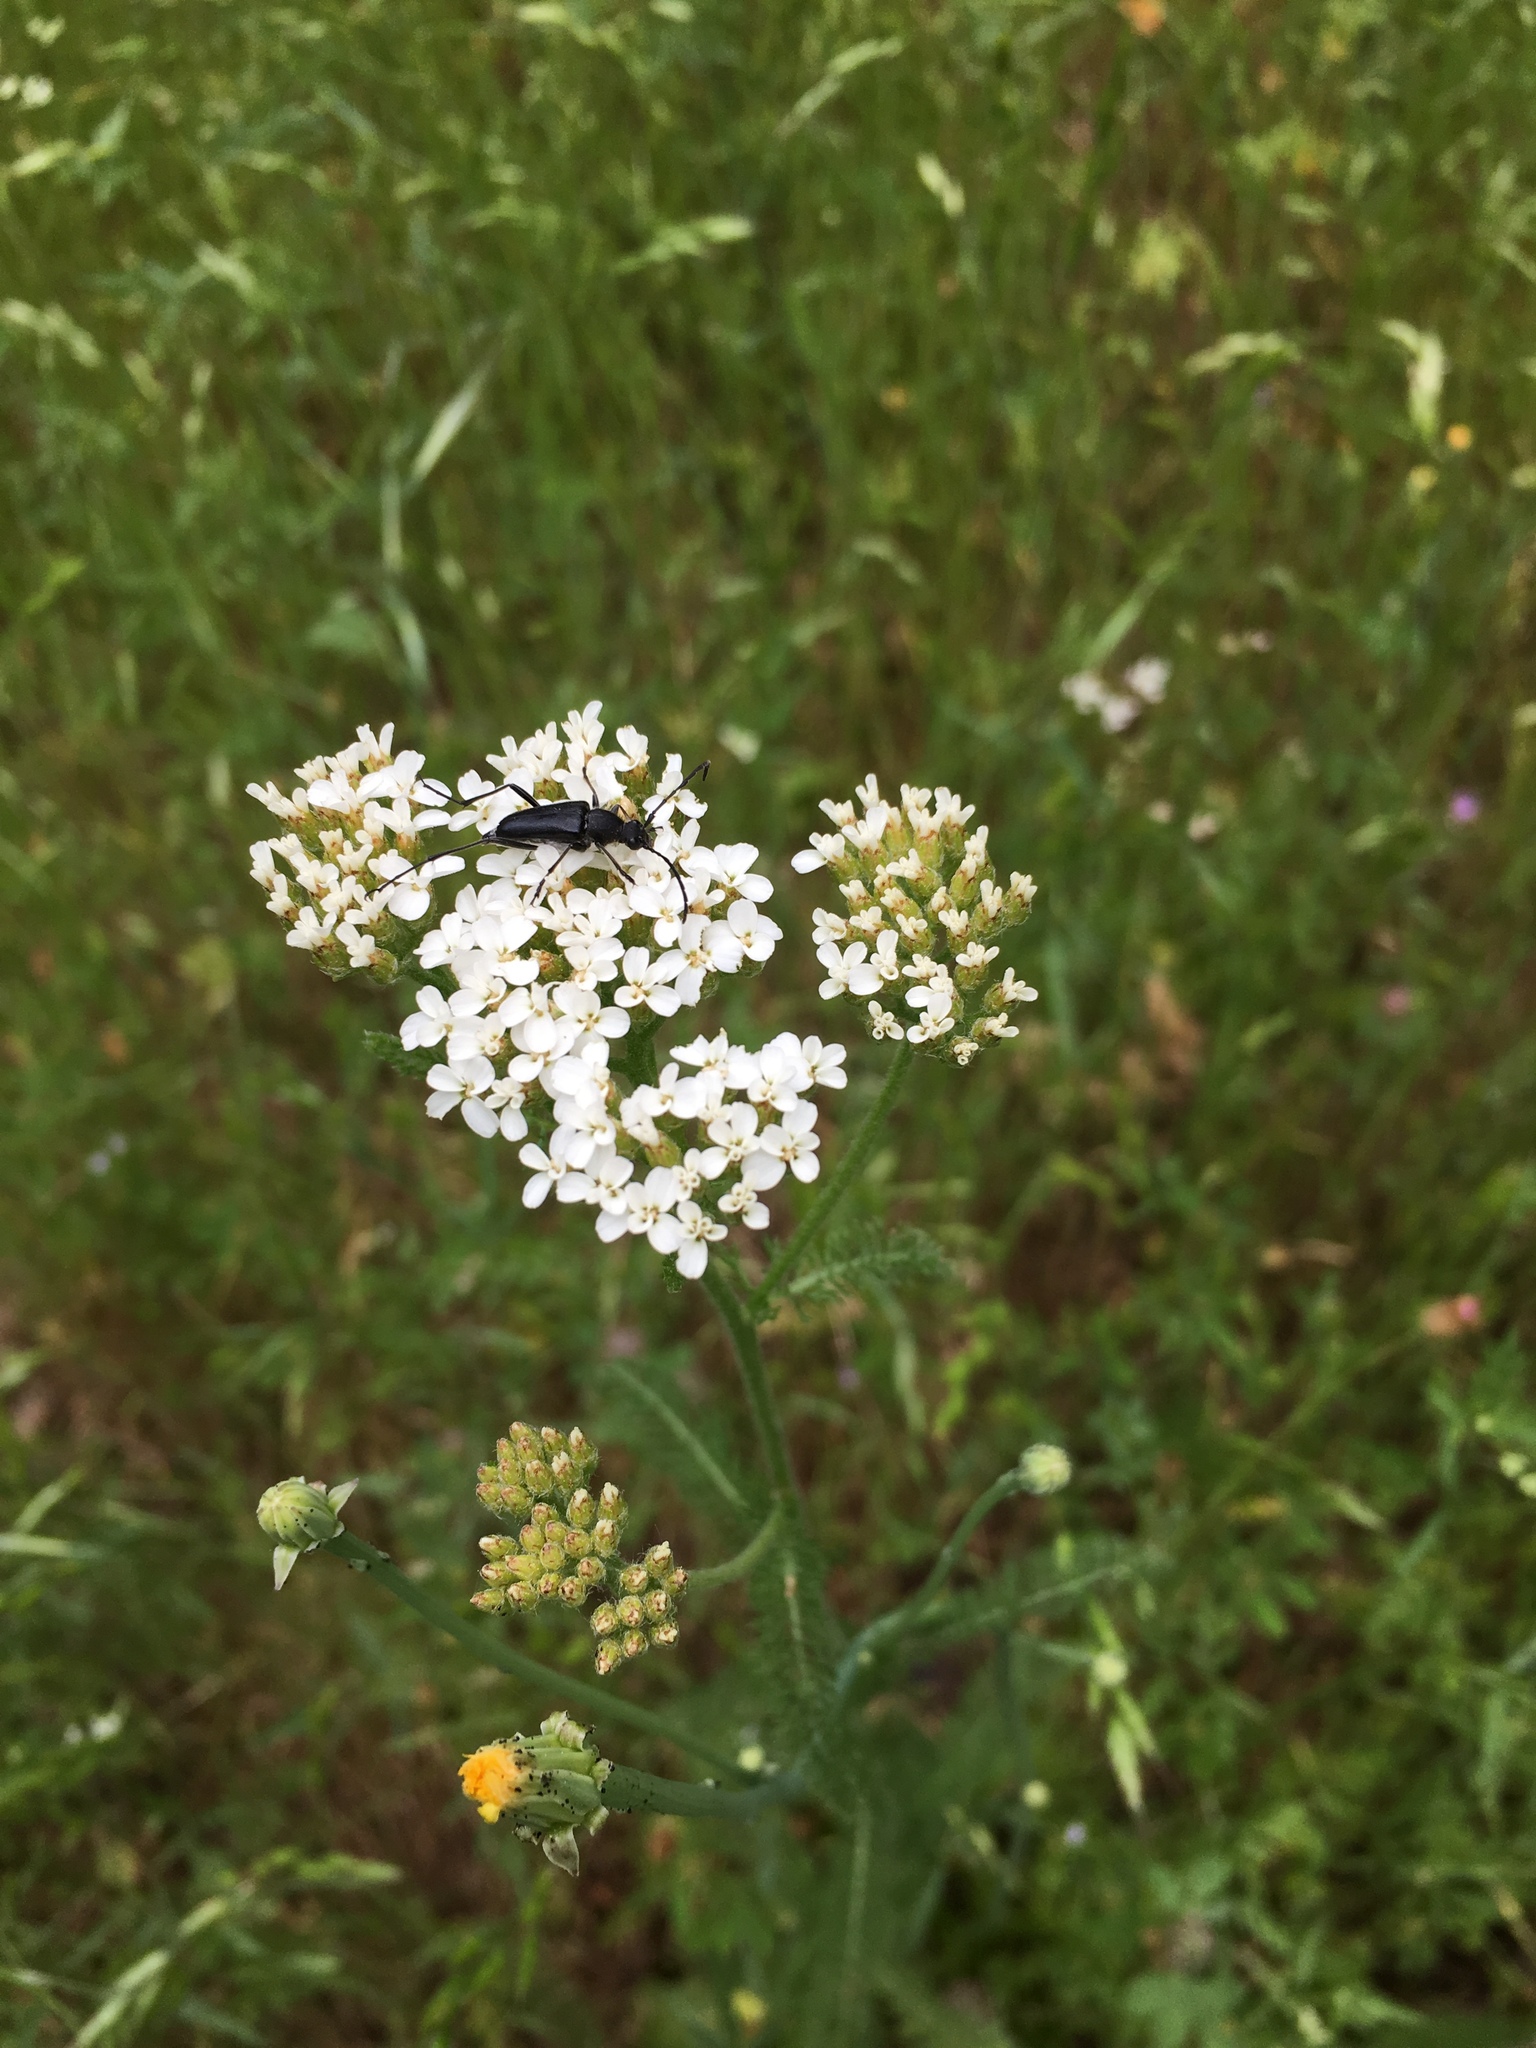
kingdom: Plantae
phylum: Tracheophyta
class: Magnoliopsida
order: Asterales
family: Asteraceae
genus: Achillea
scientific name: Achillea millefolium
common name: Yarrow
